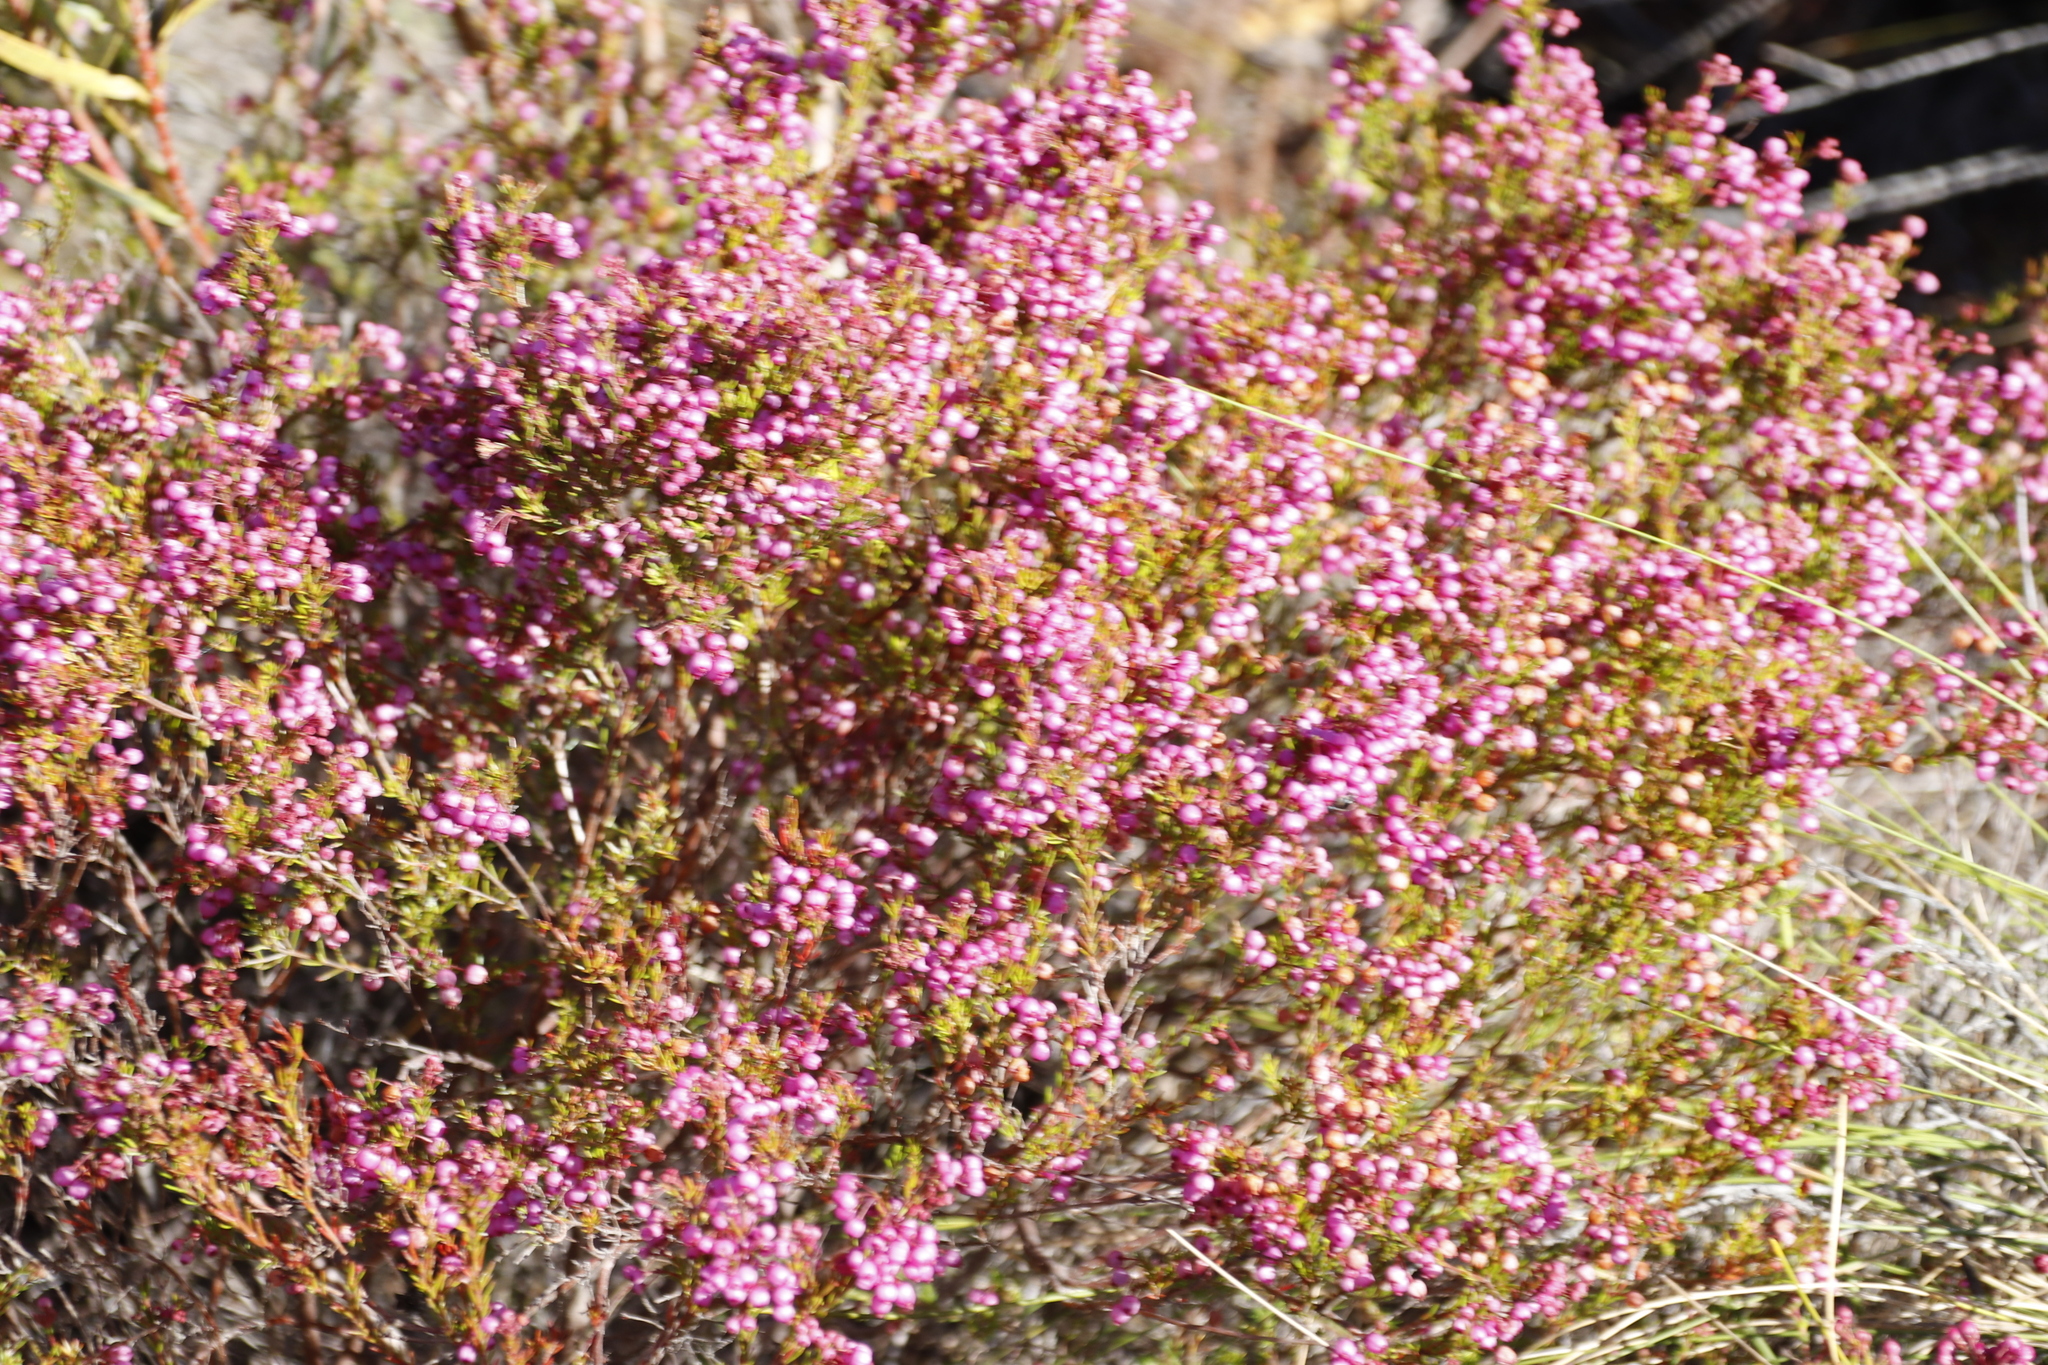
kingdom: Plantae
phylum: Tracheophyta
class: Magnoliopsida
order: Ericales
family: Ericaceae
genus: Erica
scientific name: Erica multumbellifera
